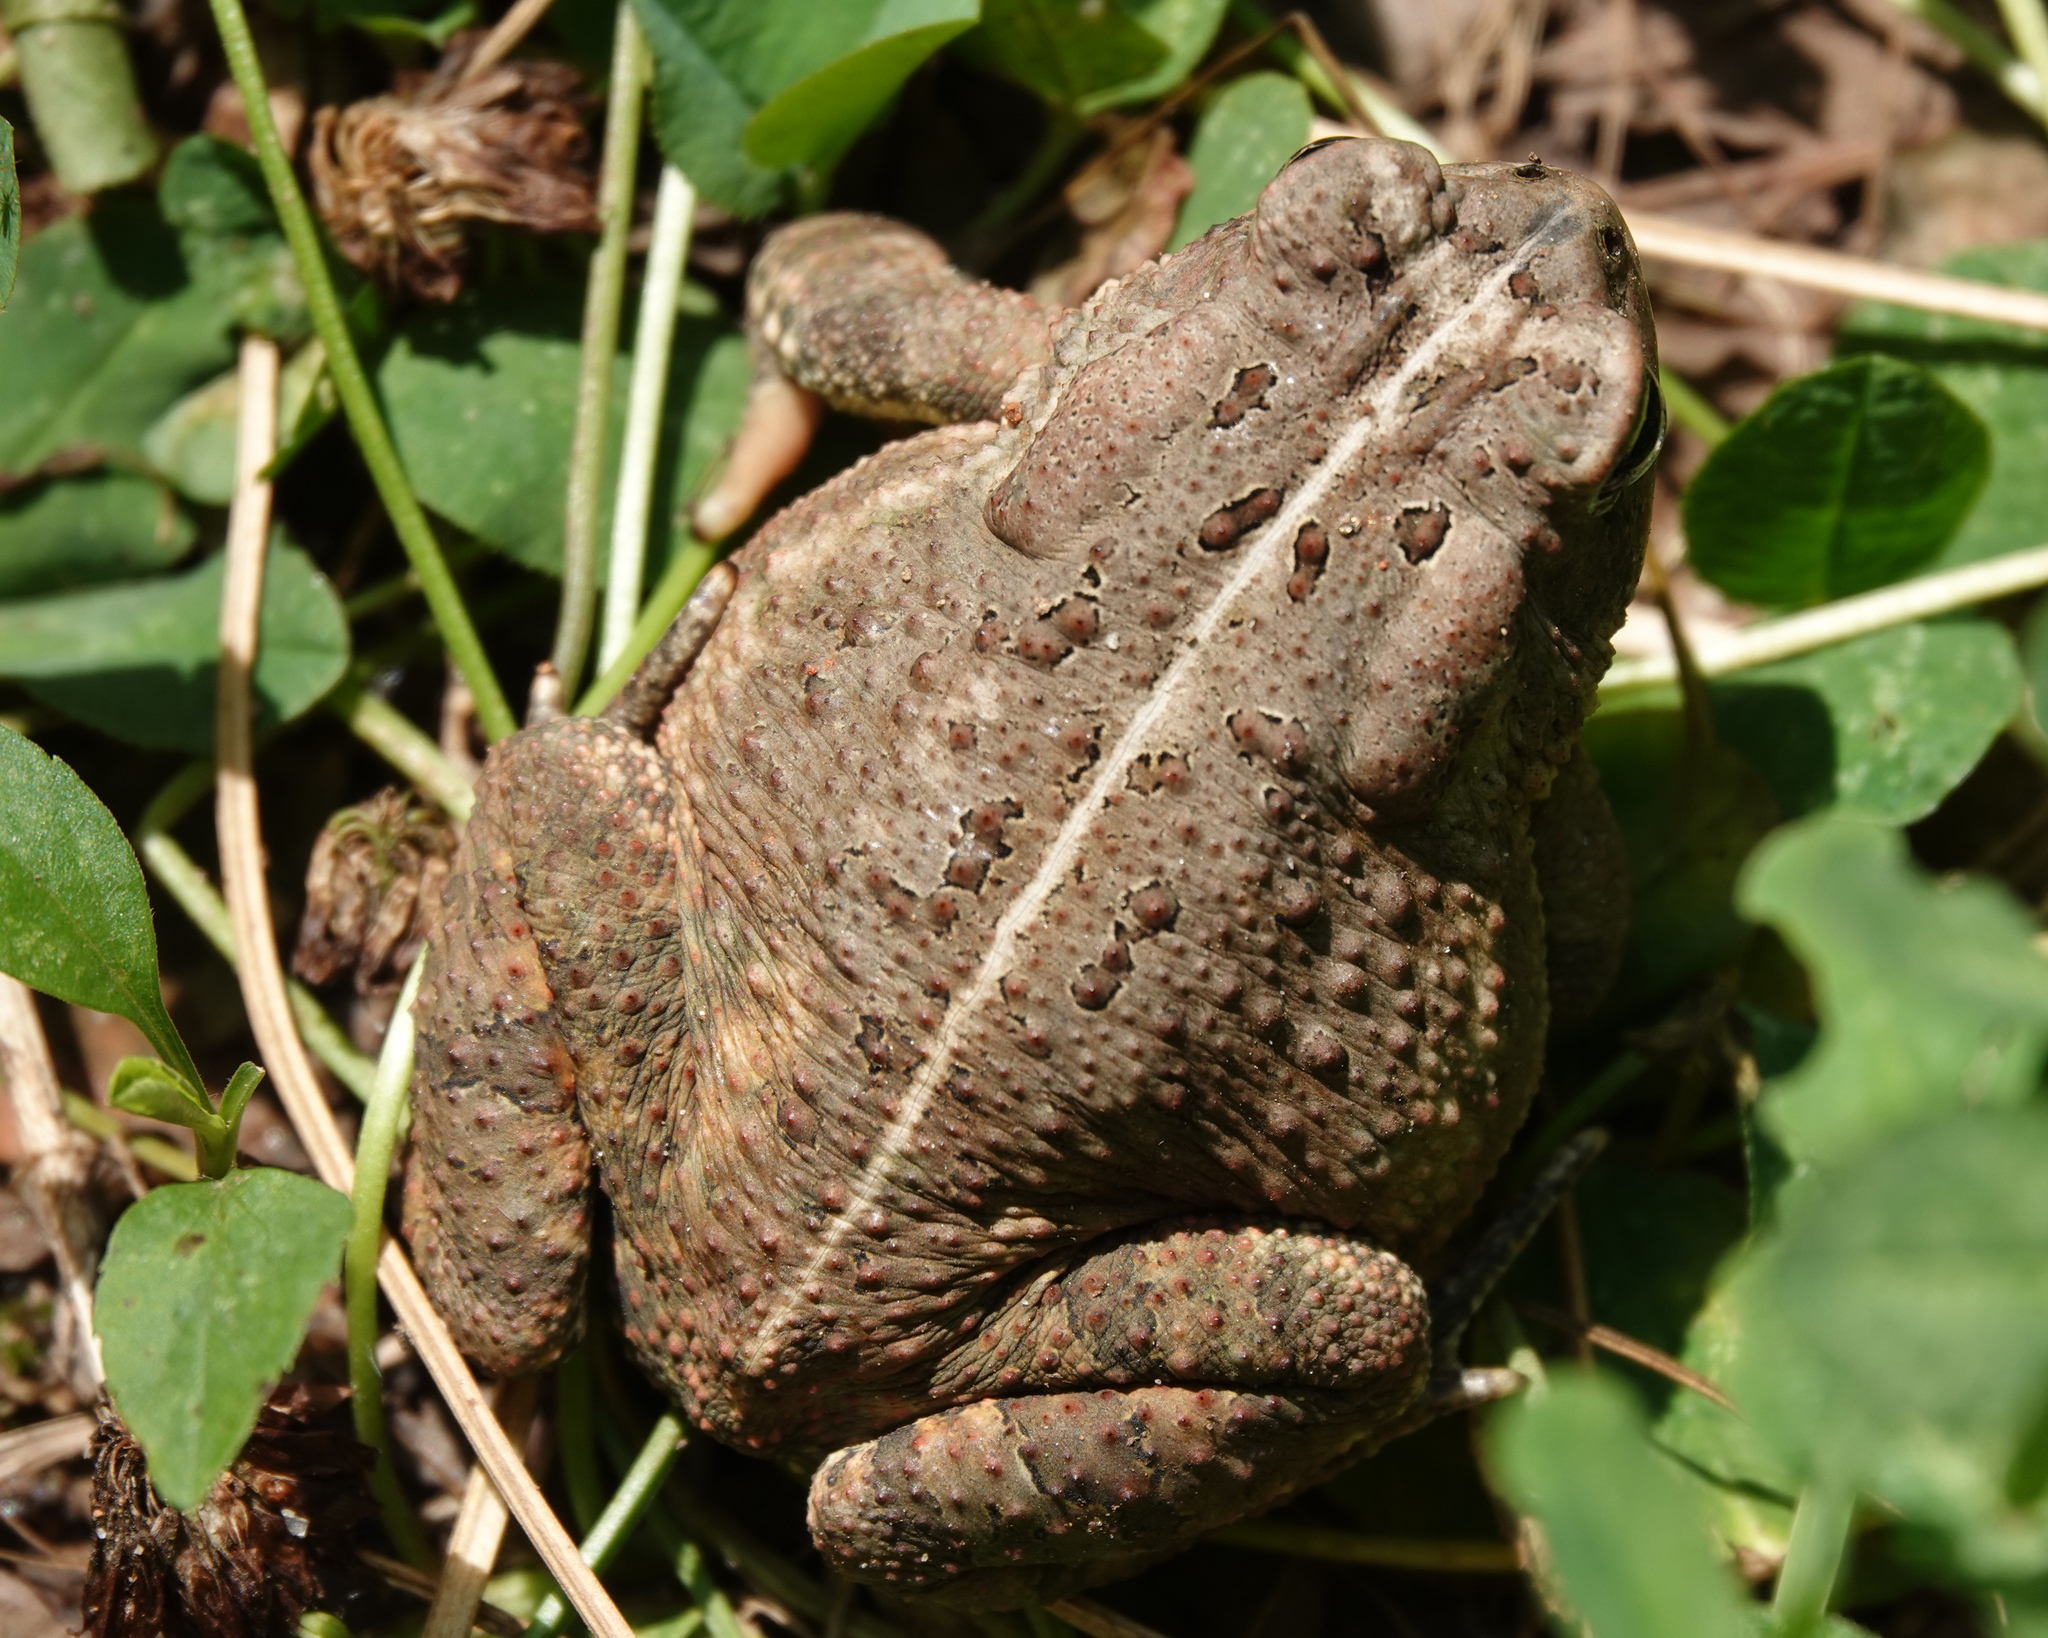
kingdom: Animalia
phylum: Chordata
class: Amphibia
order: Anura
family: Bufonidae
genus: Anaxyrus
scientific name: Anaxyrus fowleri
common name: Fowler's toad
